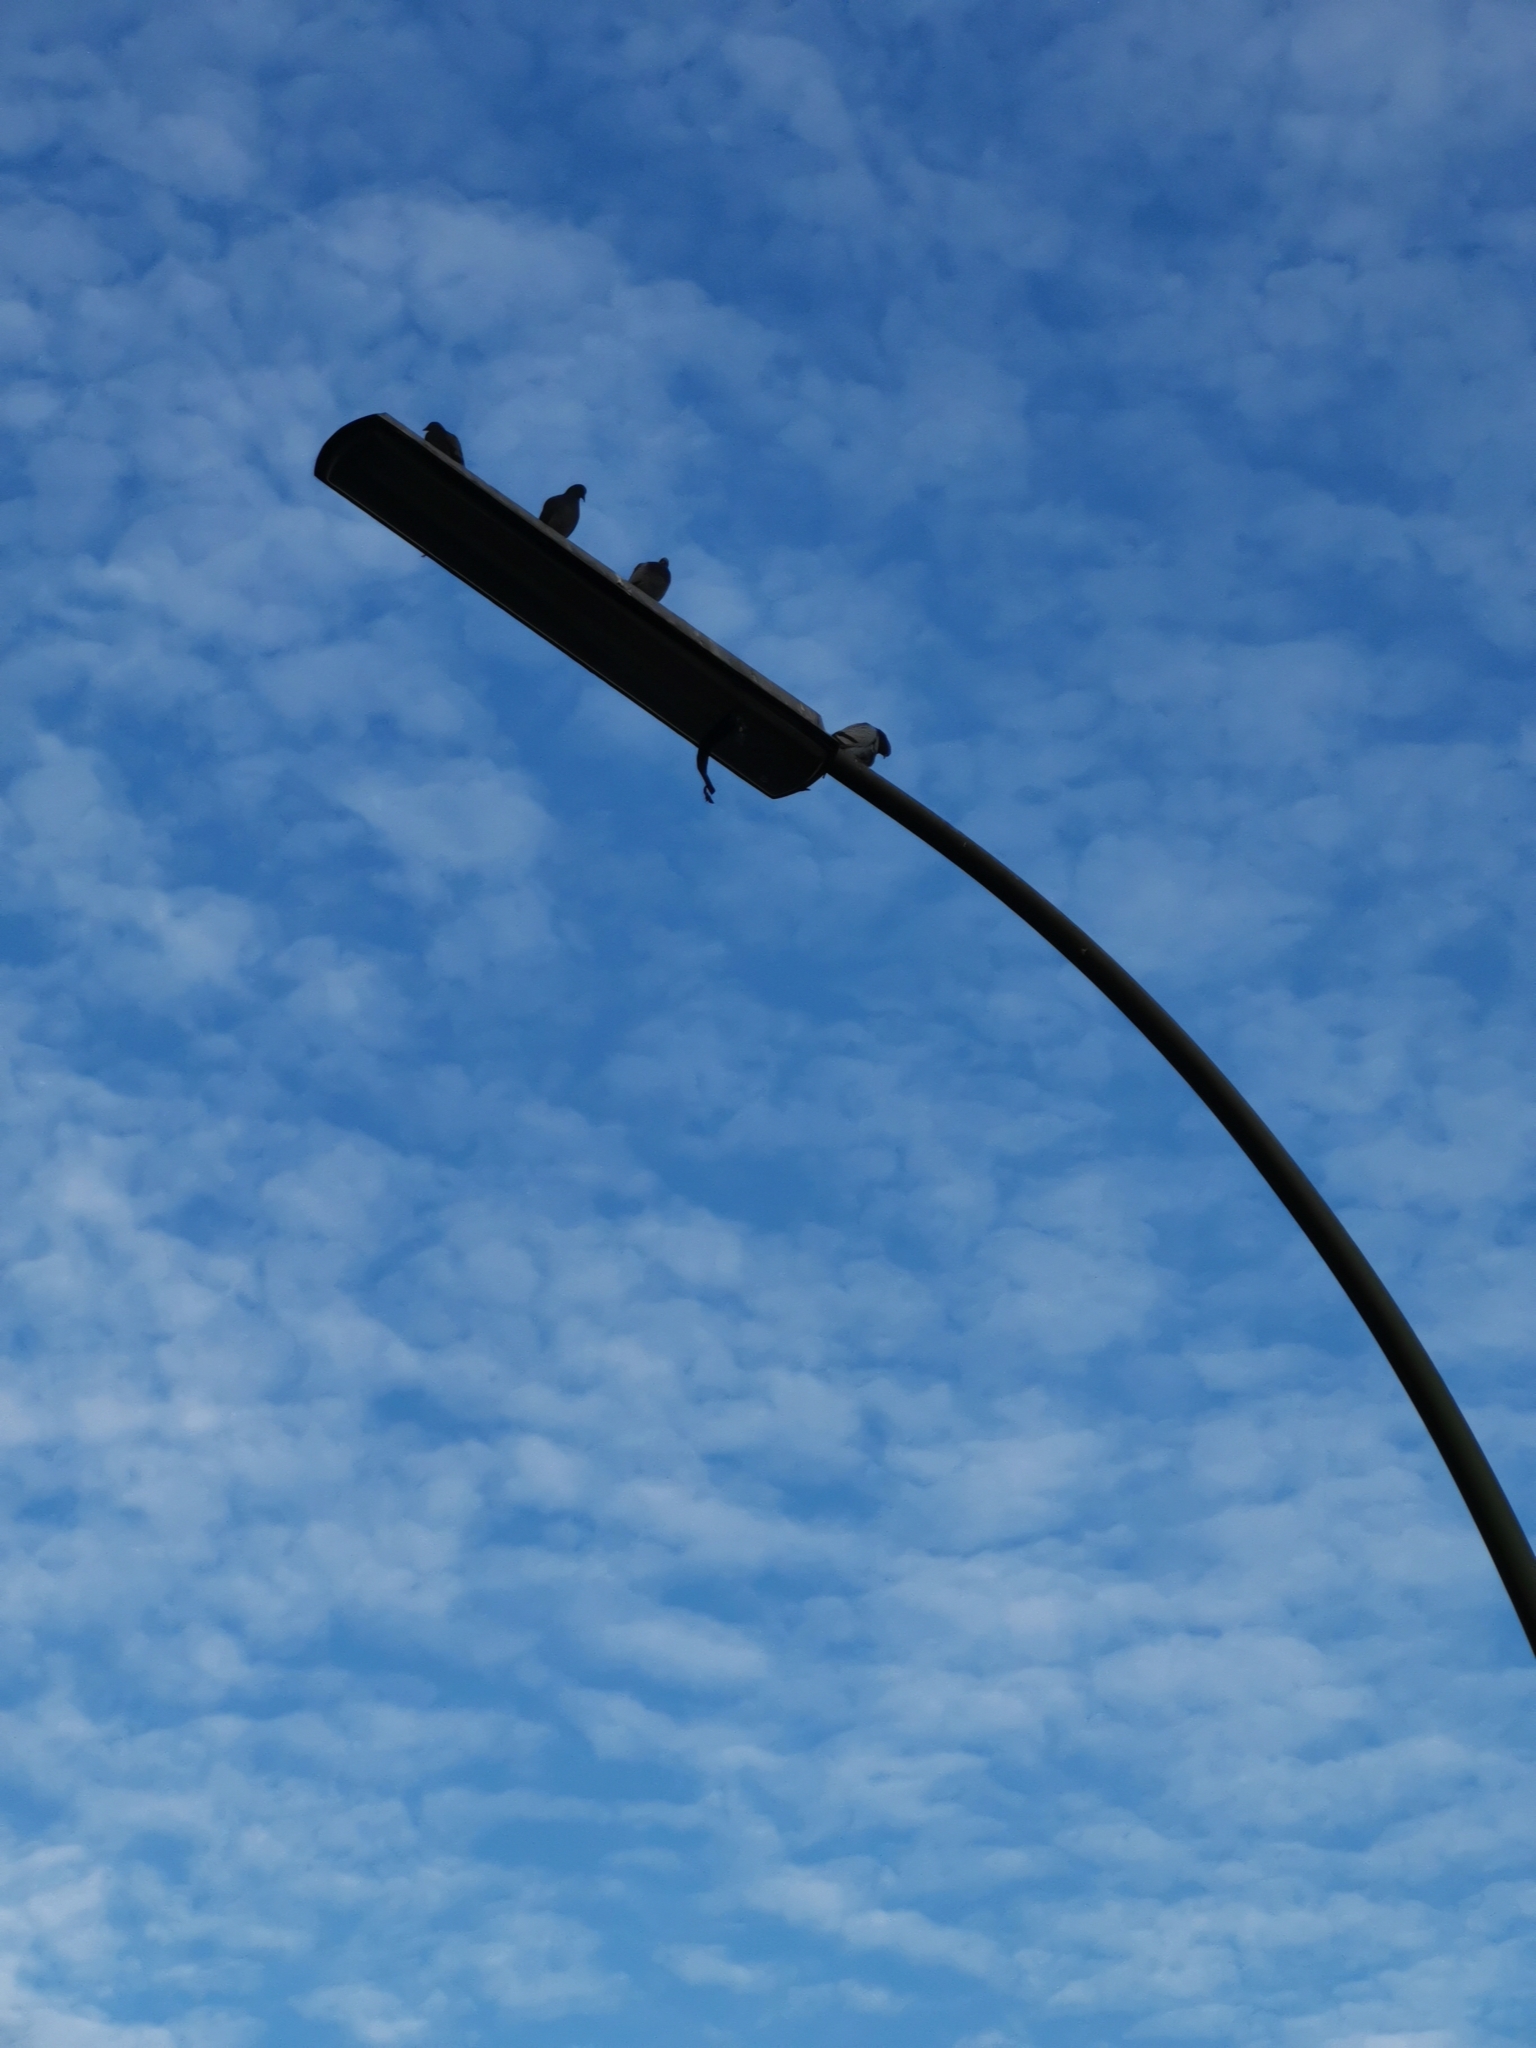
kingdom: Animalia
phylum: Chordata
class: Aves
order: Columbiformes
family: Columbidae
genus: Columba
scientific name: Columba livia
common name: Rock pigeon
